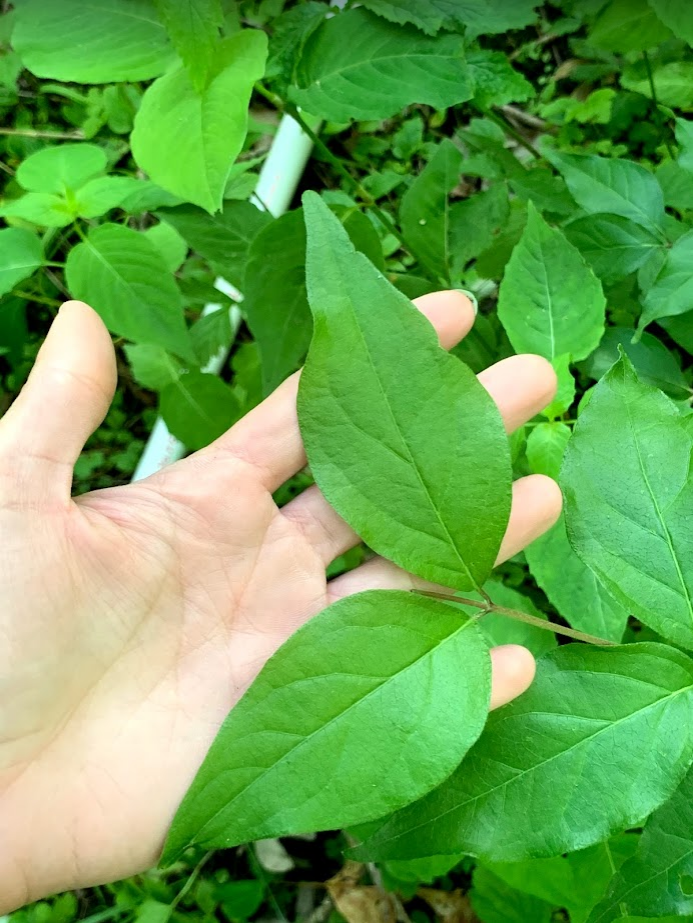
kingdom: Plantae
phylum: Tracheophyta
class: Magnoliopsida
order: Dipsacales
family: Caprifoliaceae
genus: Lonicera
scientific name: Lonicera maackii
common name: Amur honeysuckle
